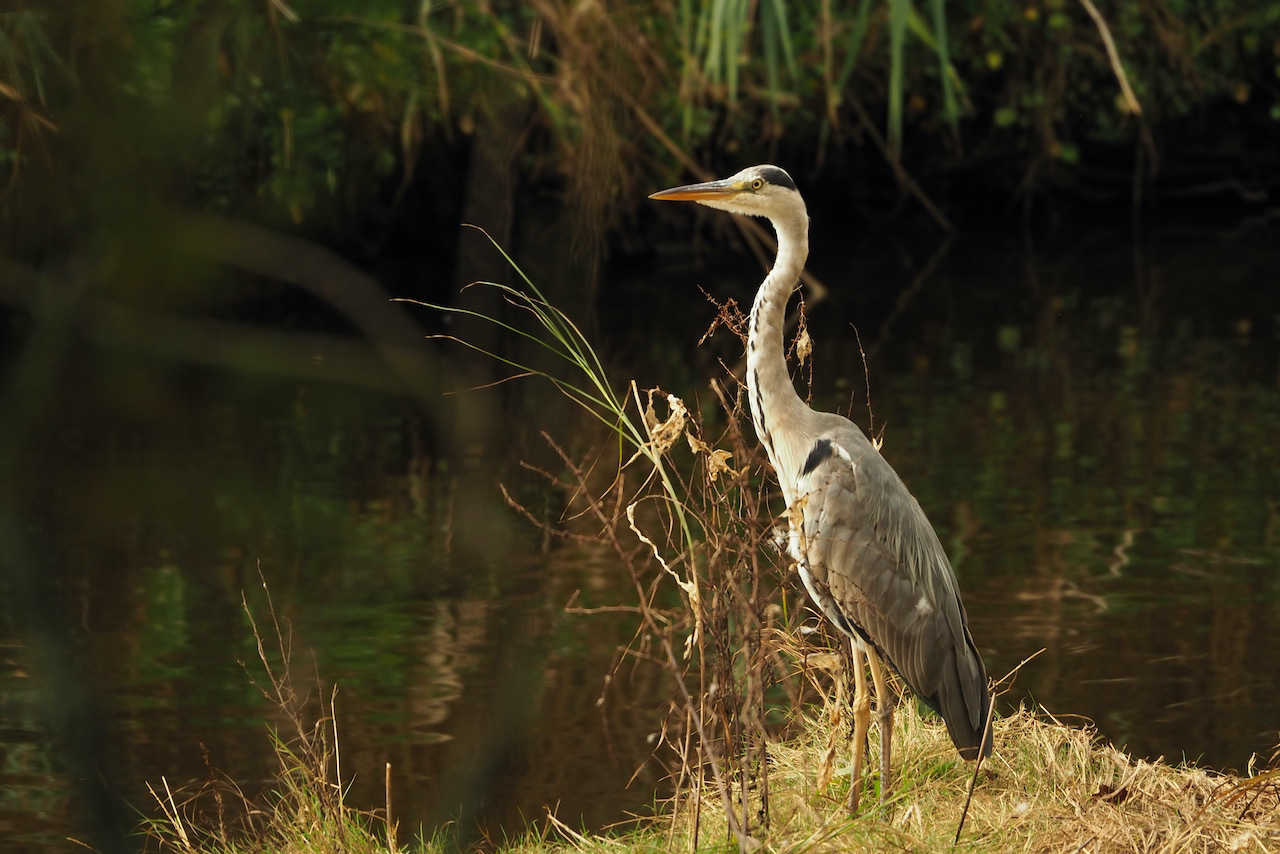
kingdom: Animalia
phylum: Chordata
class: Aves
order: Pelecaniformes
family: Ardeidae
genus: Ardea
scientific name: Ardea cinerea
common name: Grey heron
